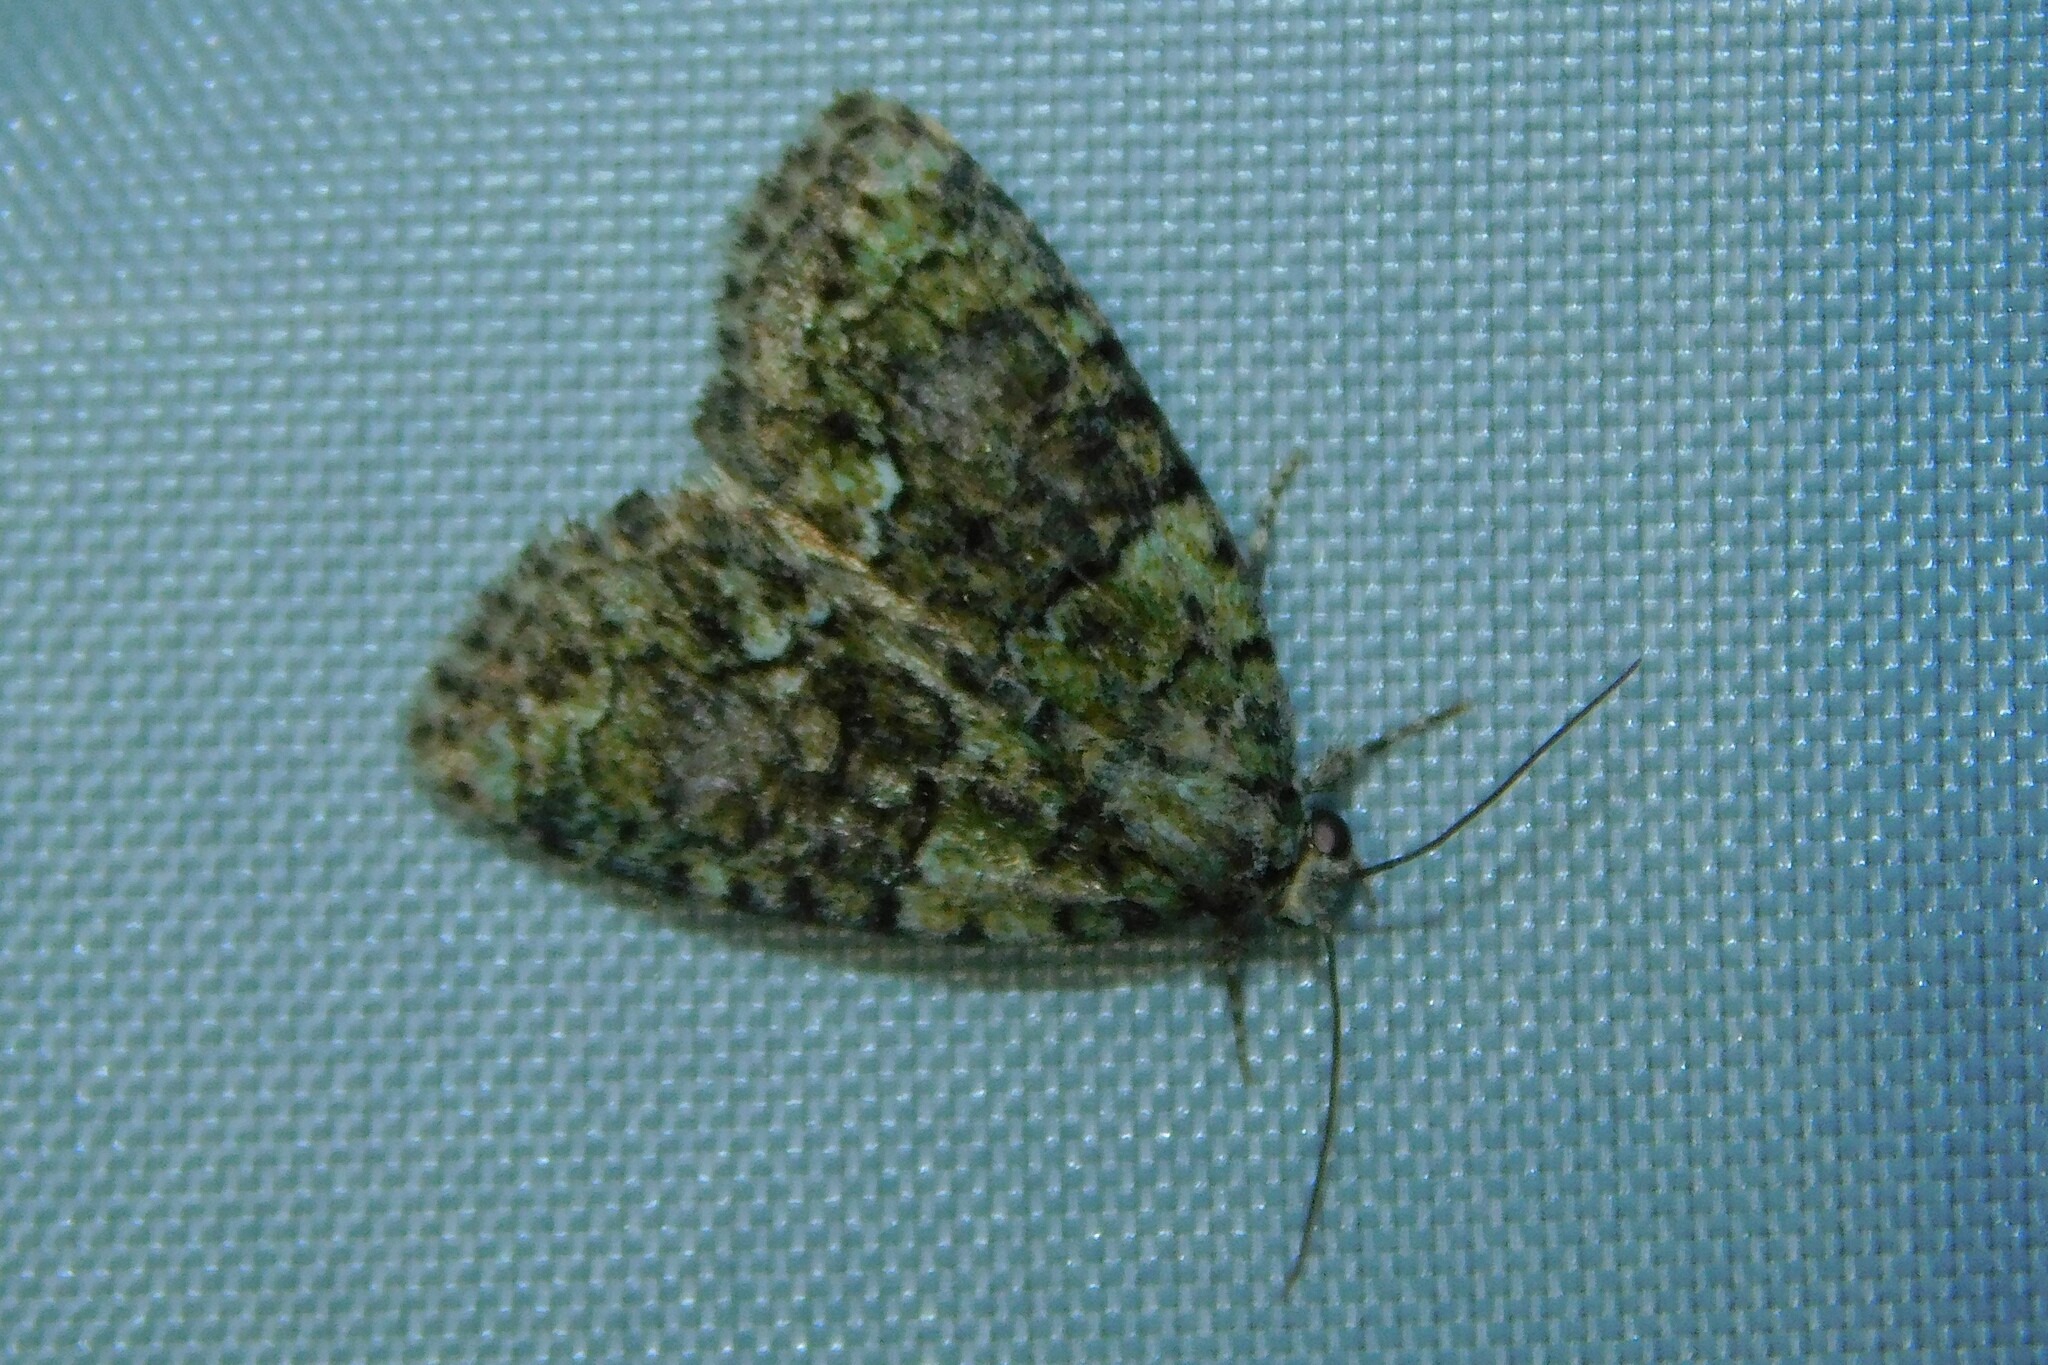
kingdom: Animalia
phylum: Arthropoda
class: Insecta
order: Lepidoptera
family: Noctuidae
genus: Cryphia
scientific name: Cryphia algae
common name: Tree-lichen beauty
